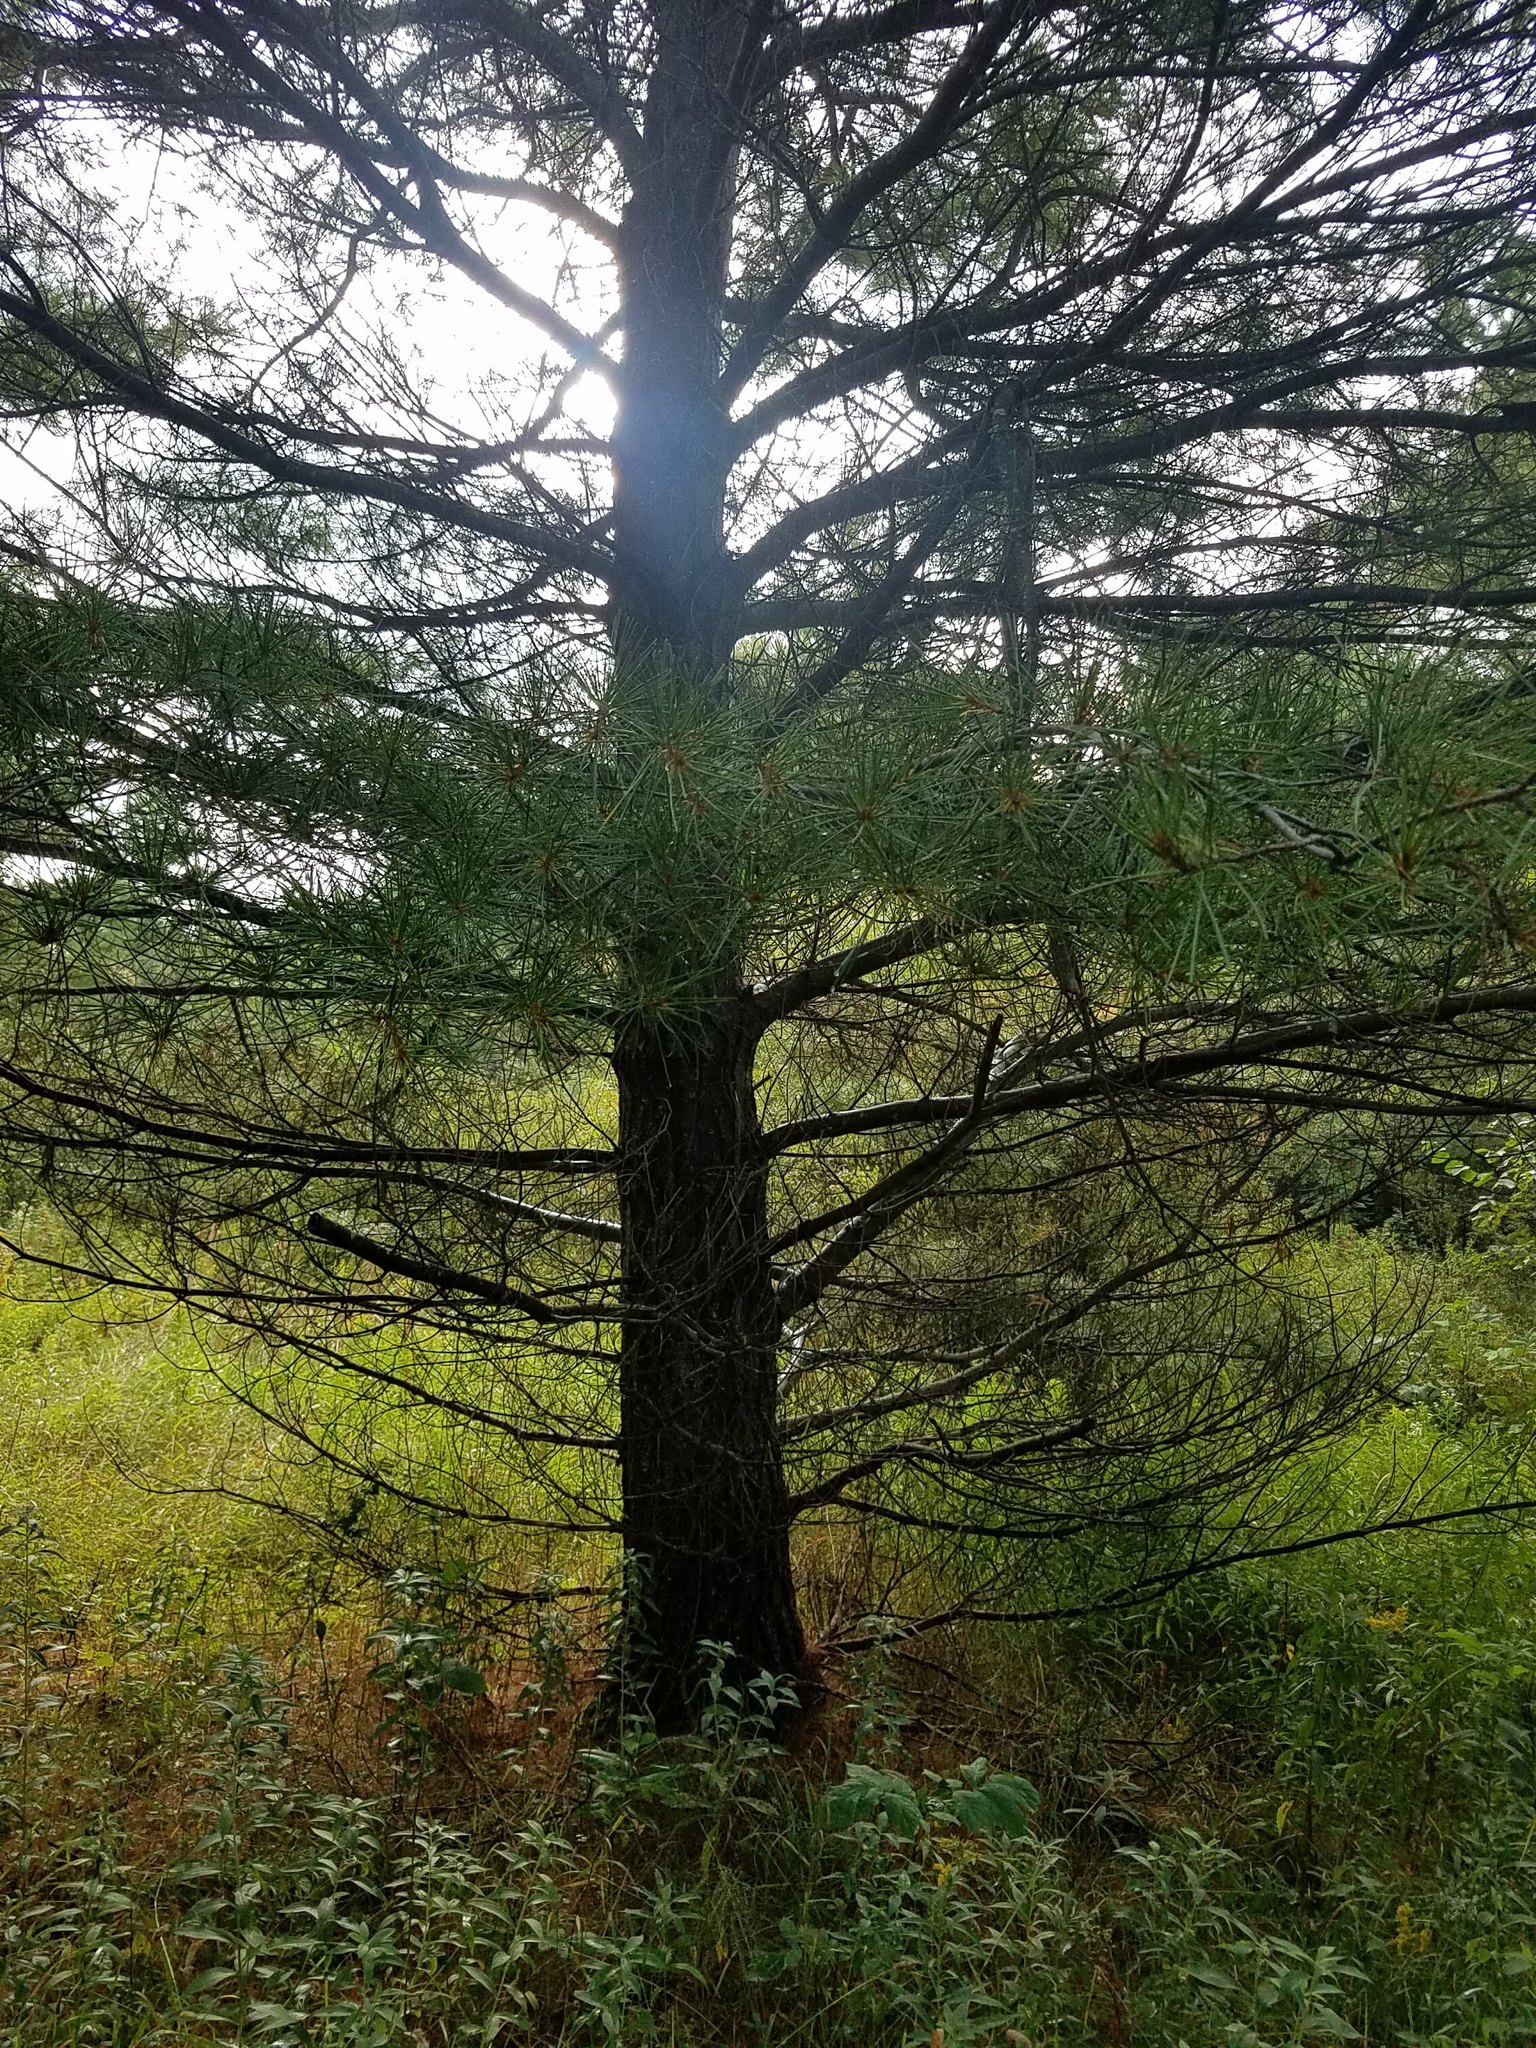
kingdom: Plantae
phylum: Tracheophyta
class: Pinopsida
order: Pinales
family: Pinaceae
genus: Pinus
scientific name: Pinus strobus
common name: Weymouth pine
